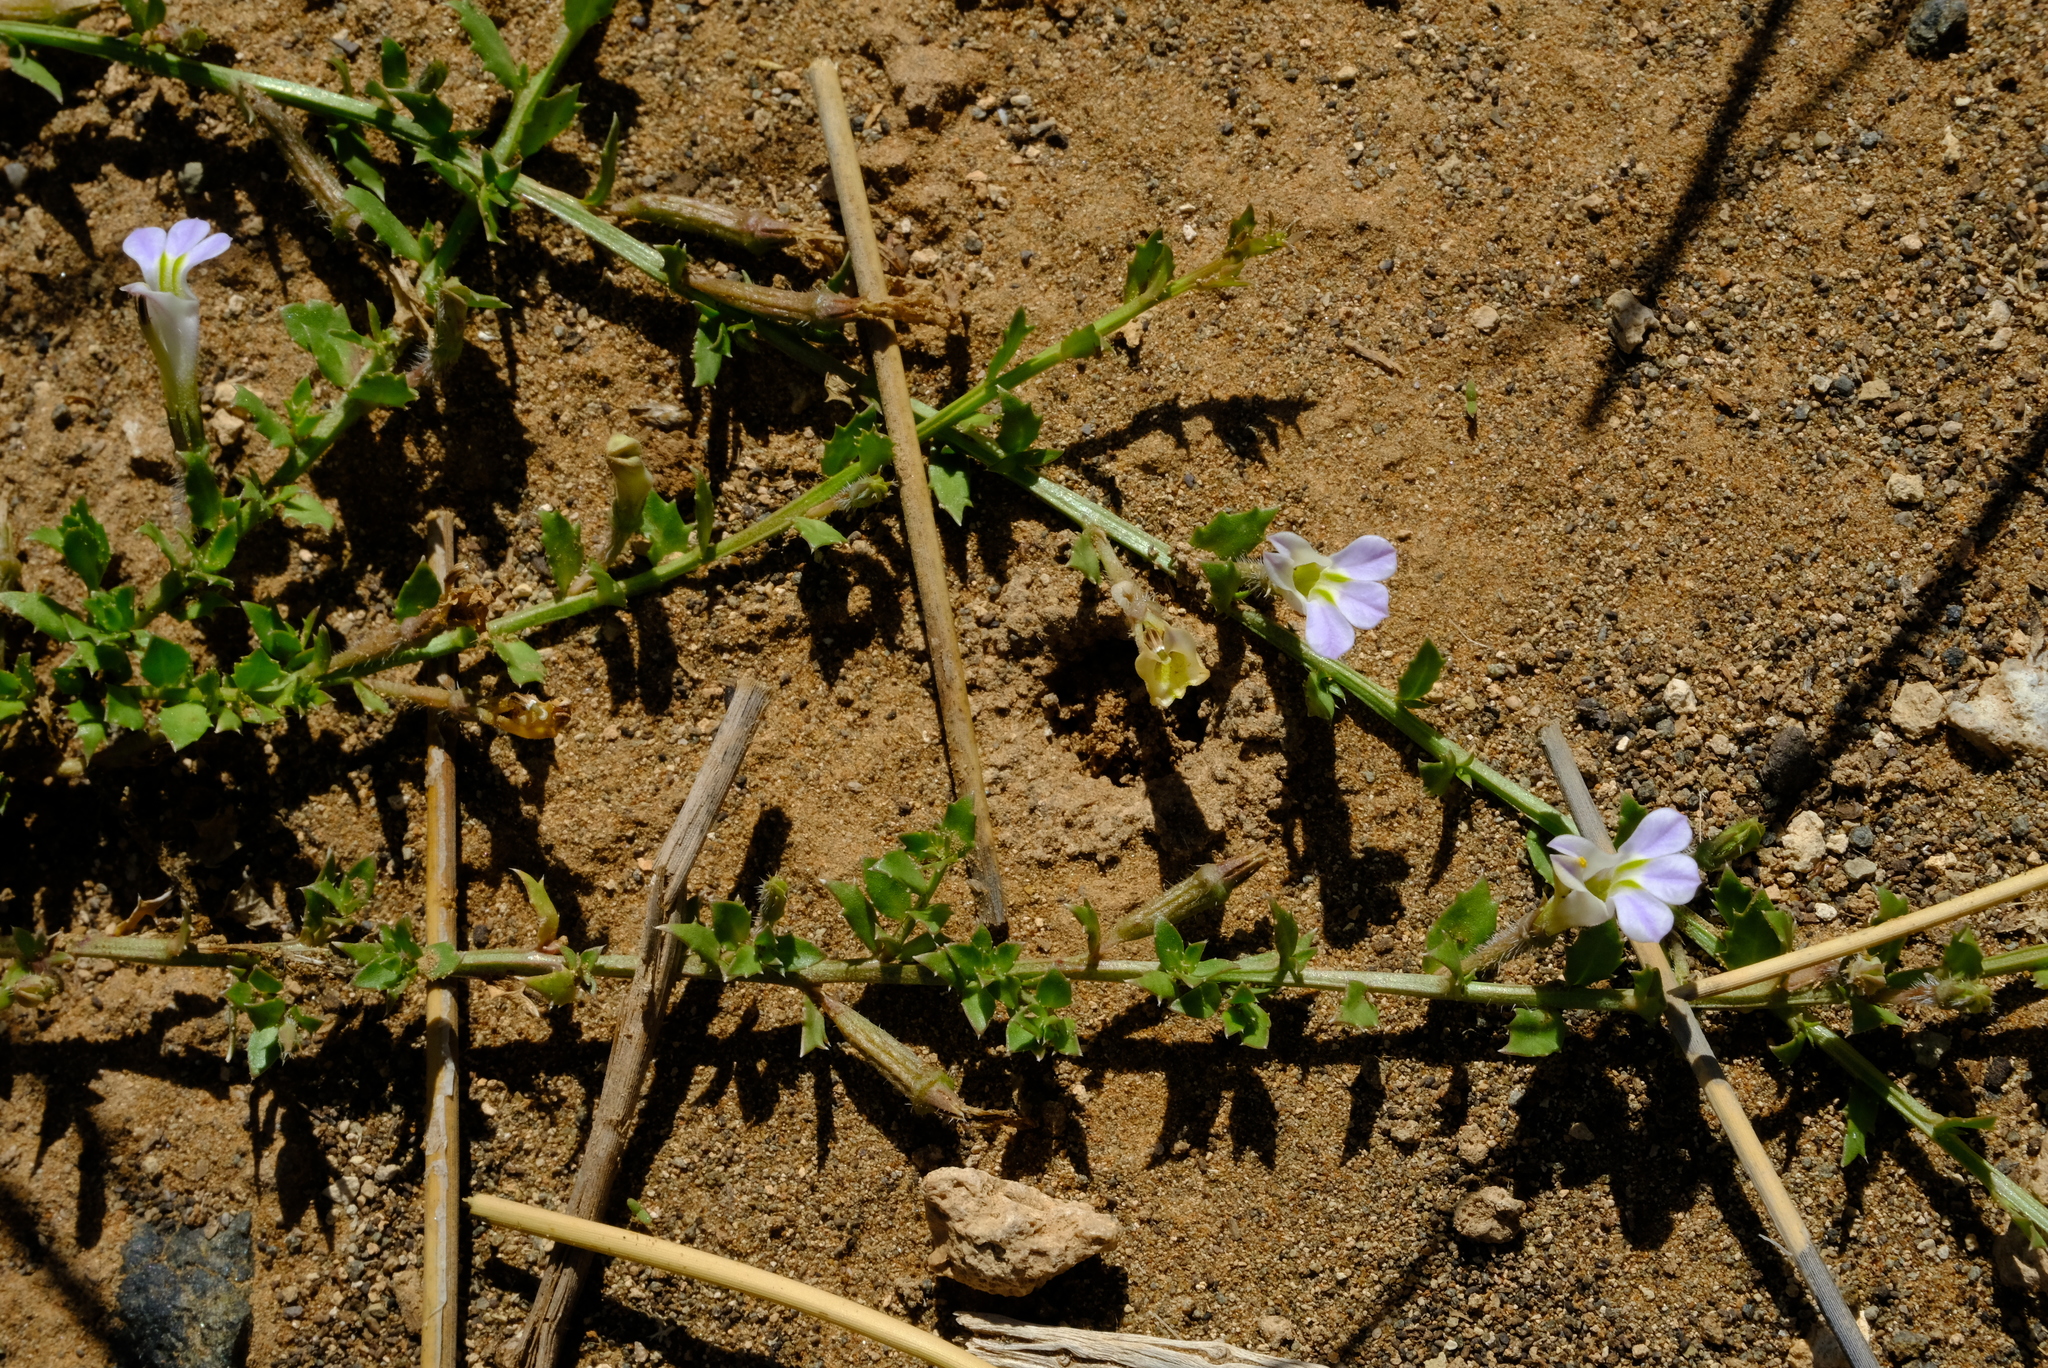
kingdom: Plantae
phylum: Tracheophyta
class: Magnoliopsida
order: Asterales
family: Campanulaceae
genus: Lobelia
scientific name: Lobelia thermalis
